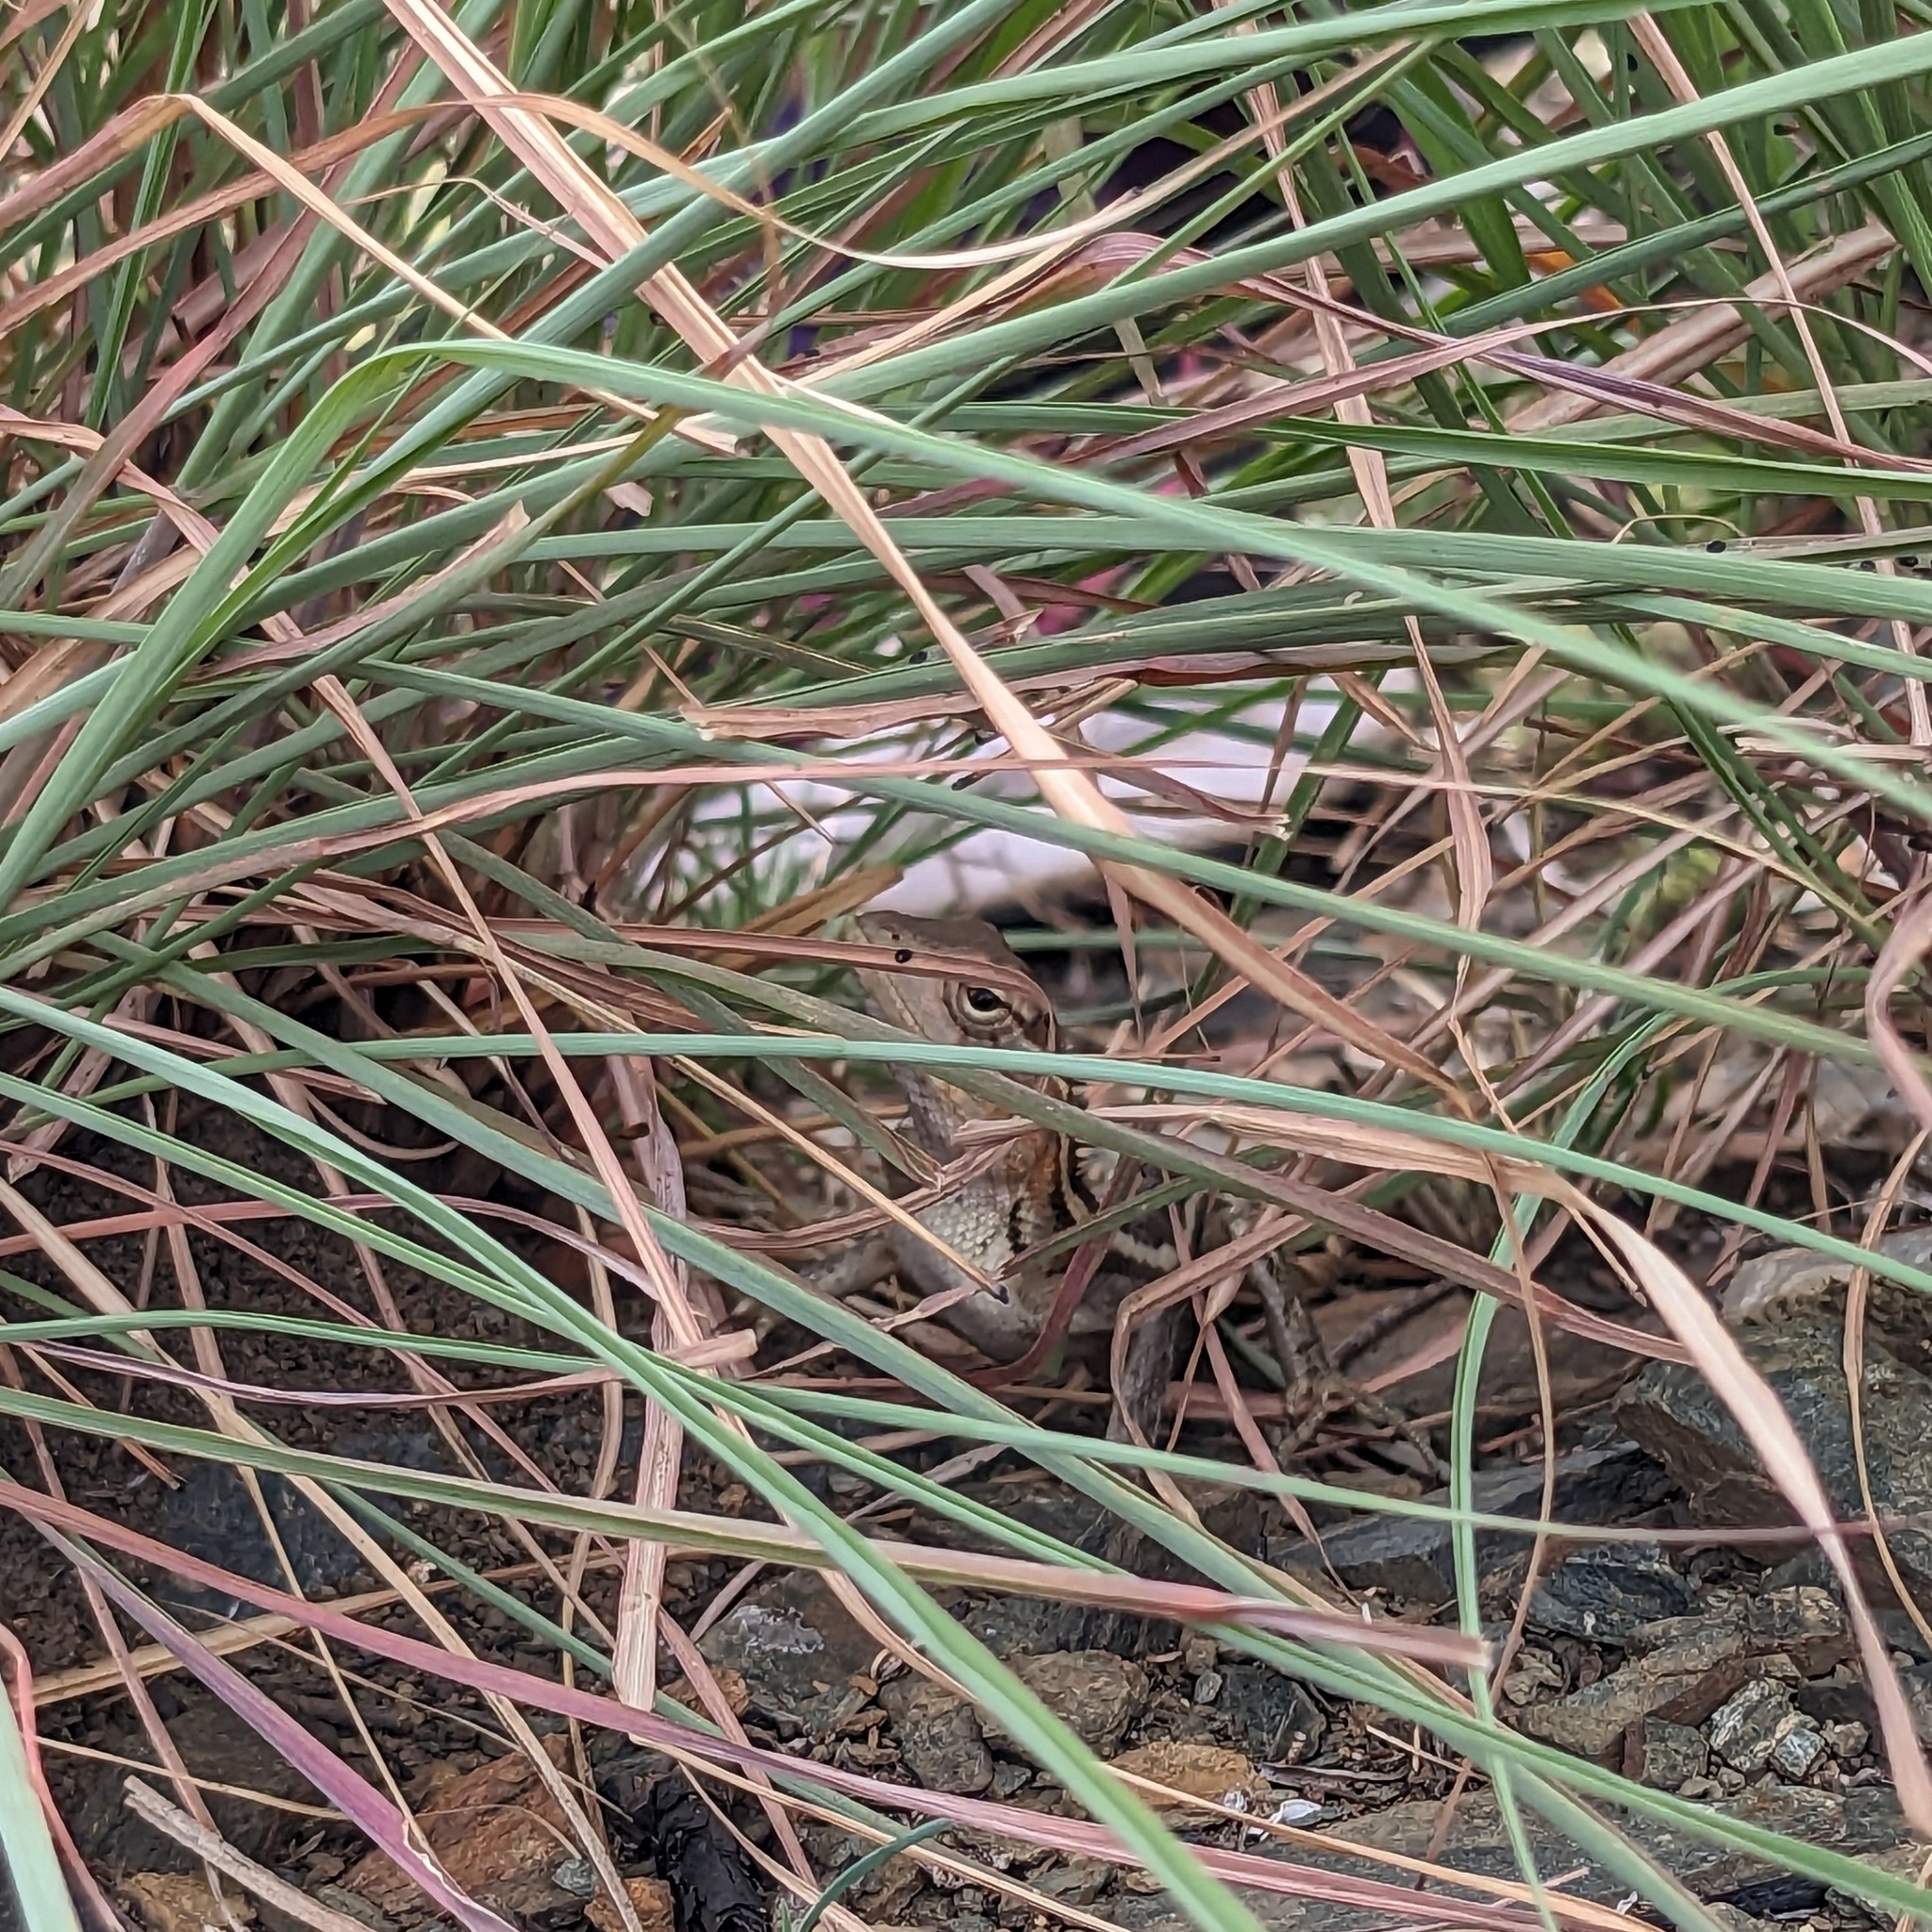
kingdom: Animalia
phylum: Chordata
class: Squamata
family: Agamidae
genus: Calotes
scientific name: Calotes versicolor
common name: Oriental garden lizard
